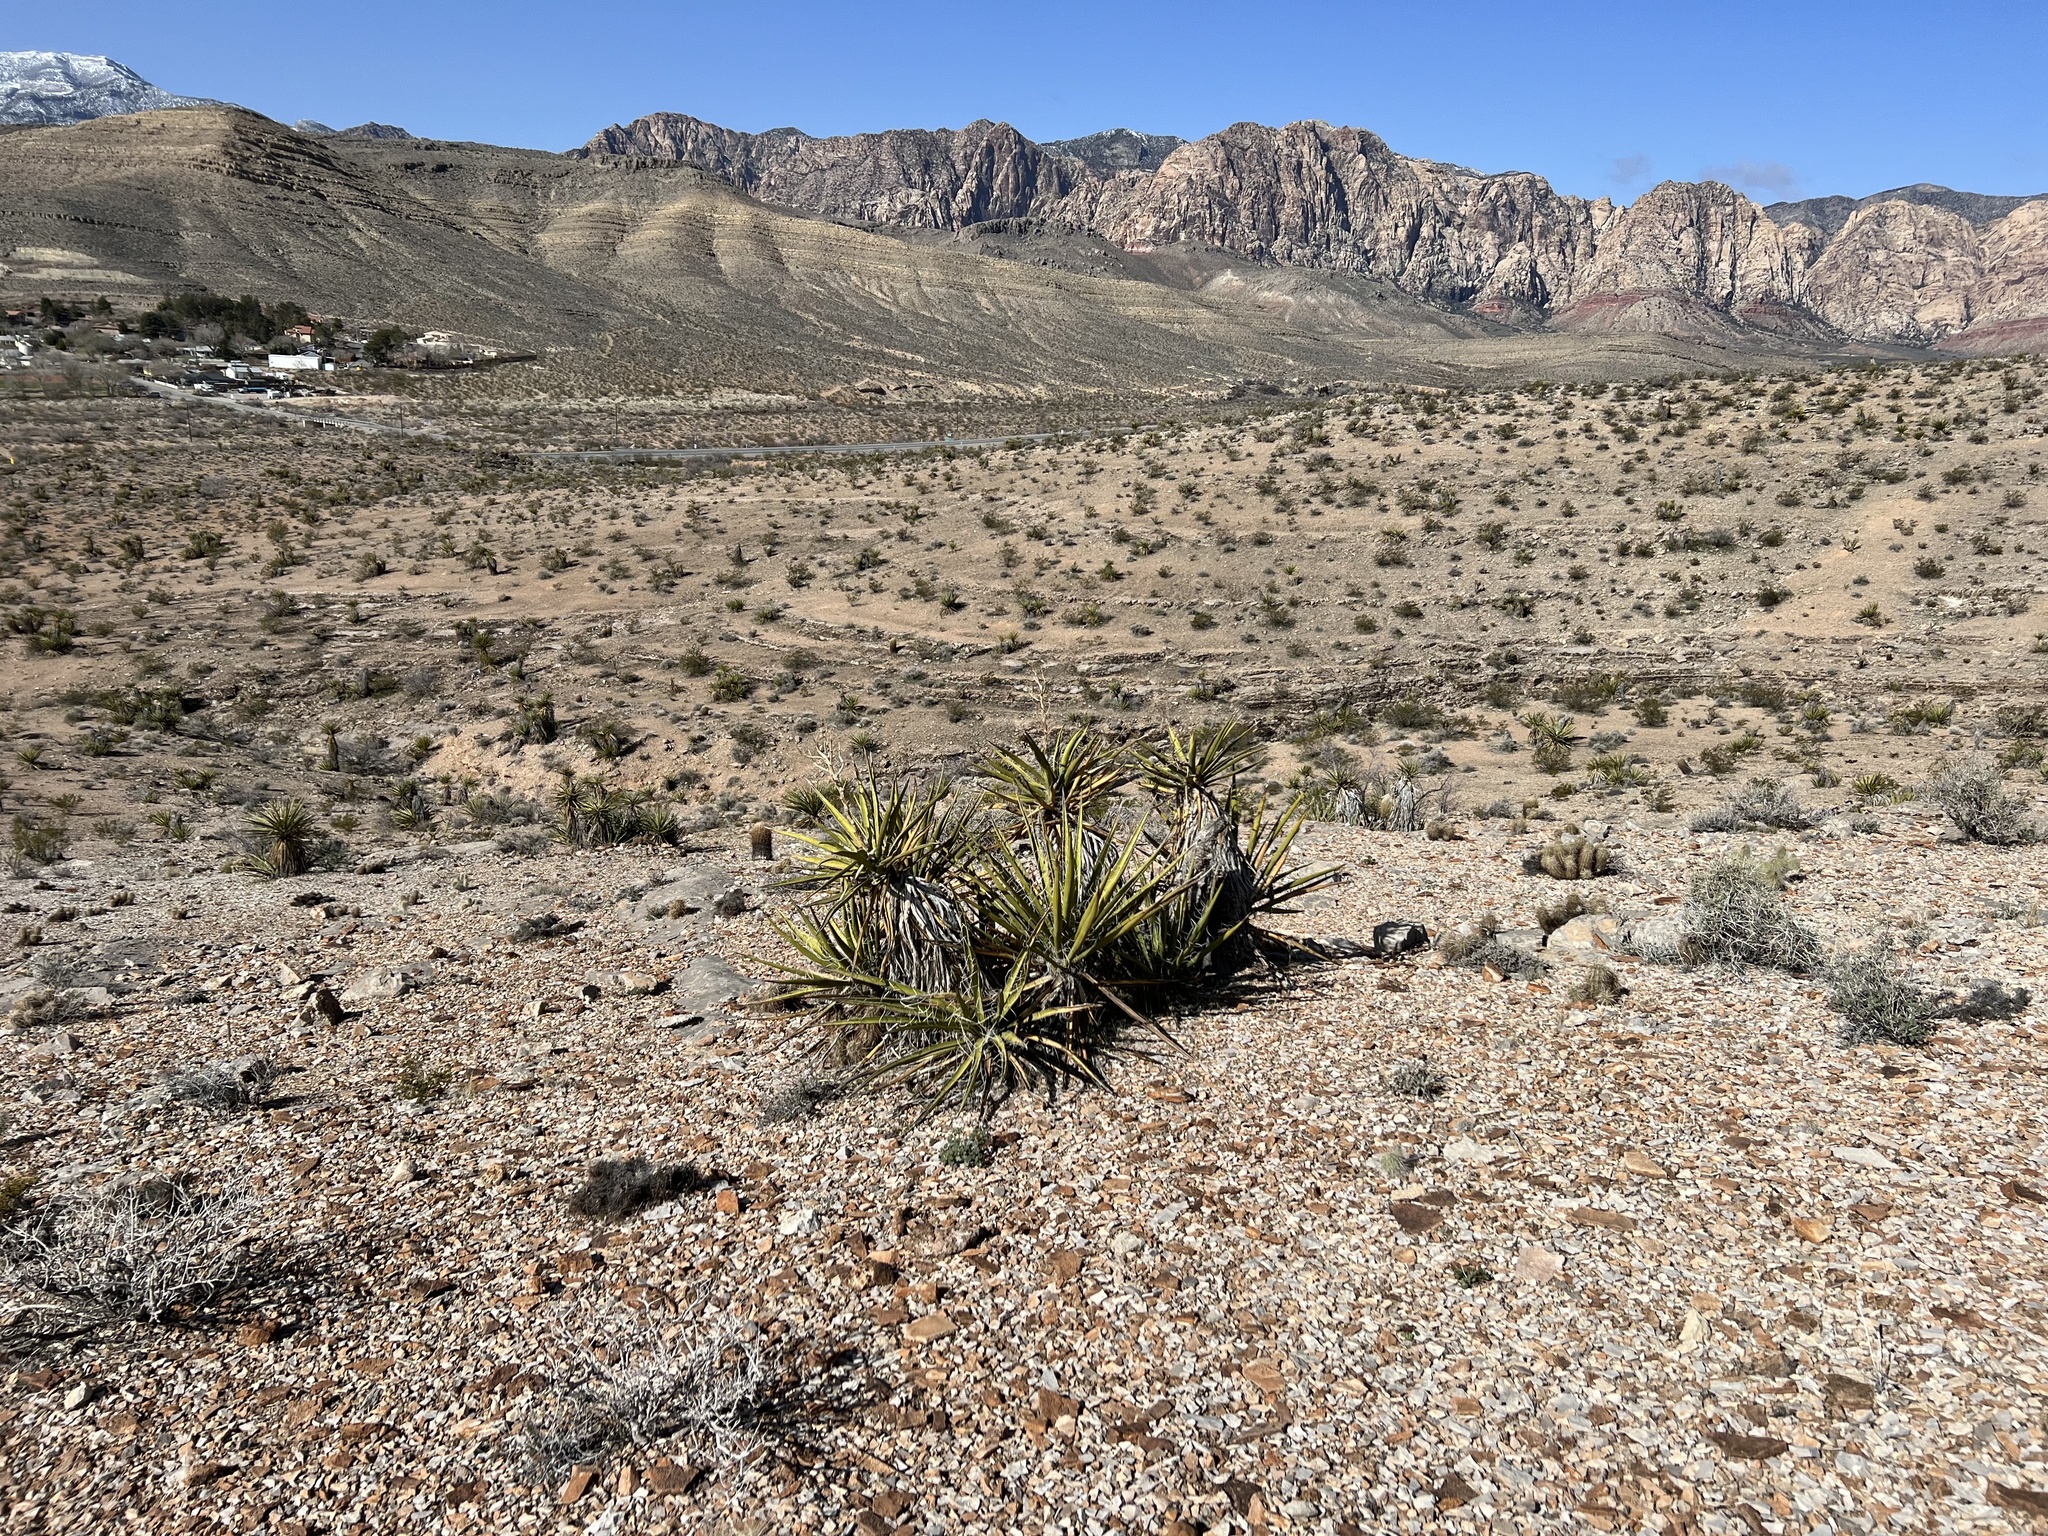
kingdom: Plantae
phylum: Tracheophyta
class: Liliopsida
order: Asparagales
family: Asparagaceae
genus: Yucca
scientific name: Yucca schidigera
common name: Mojave yucca
